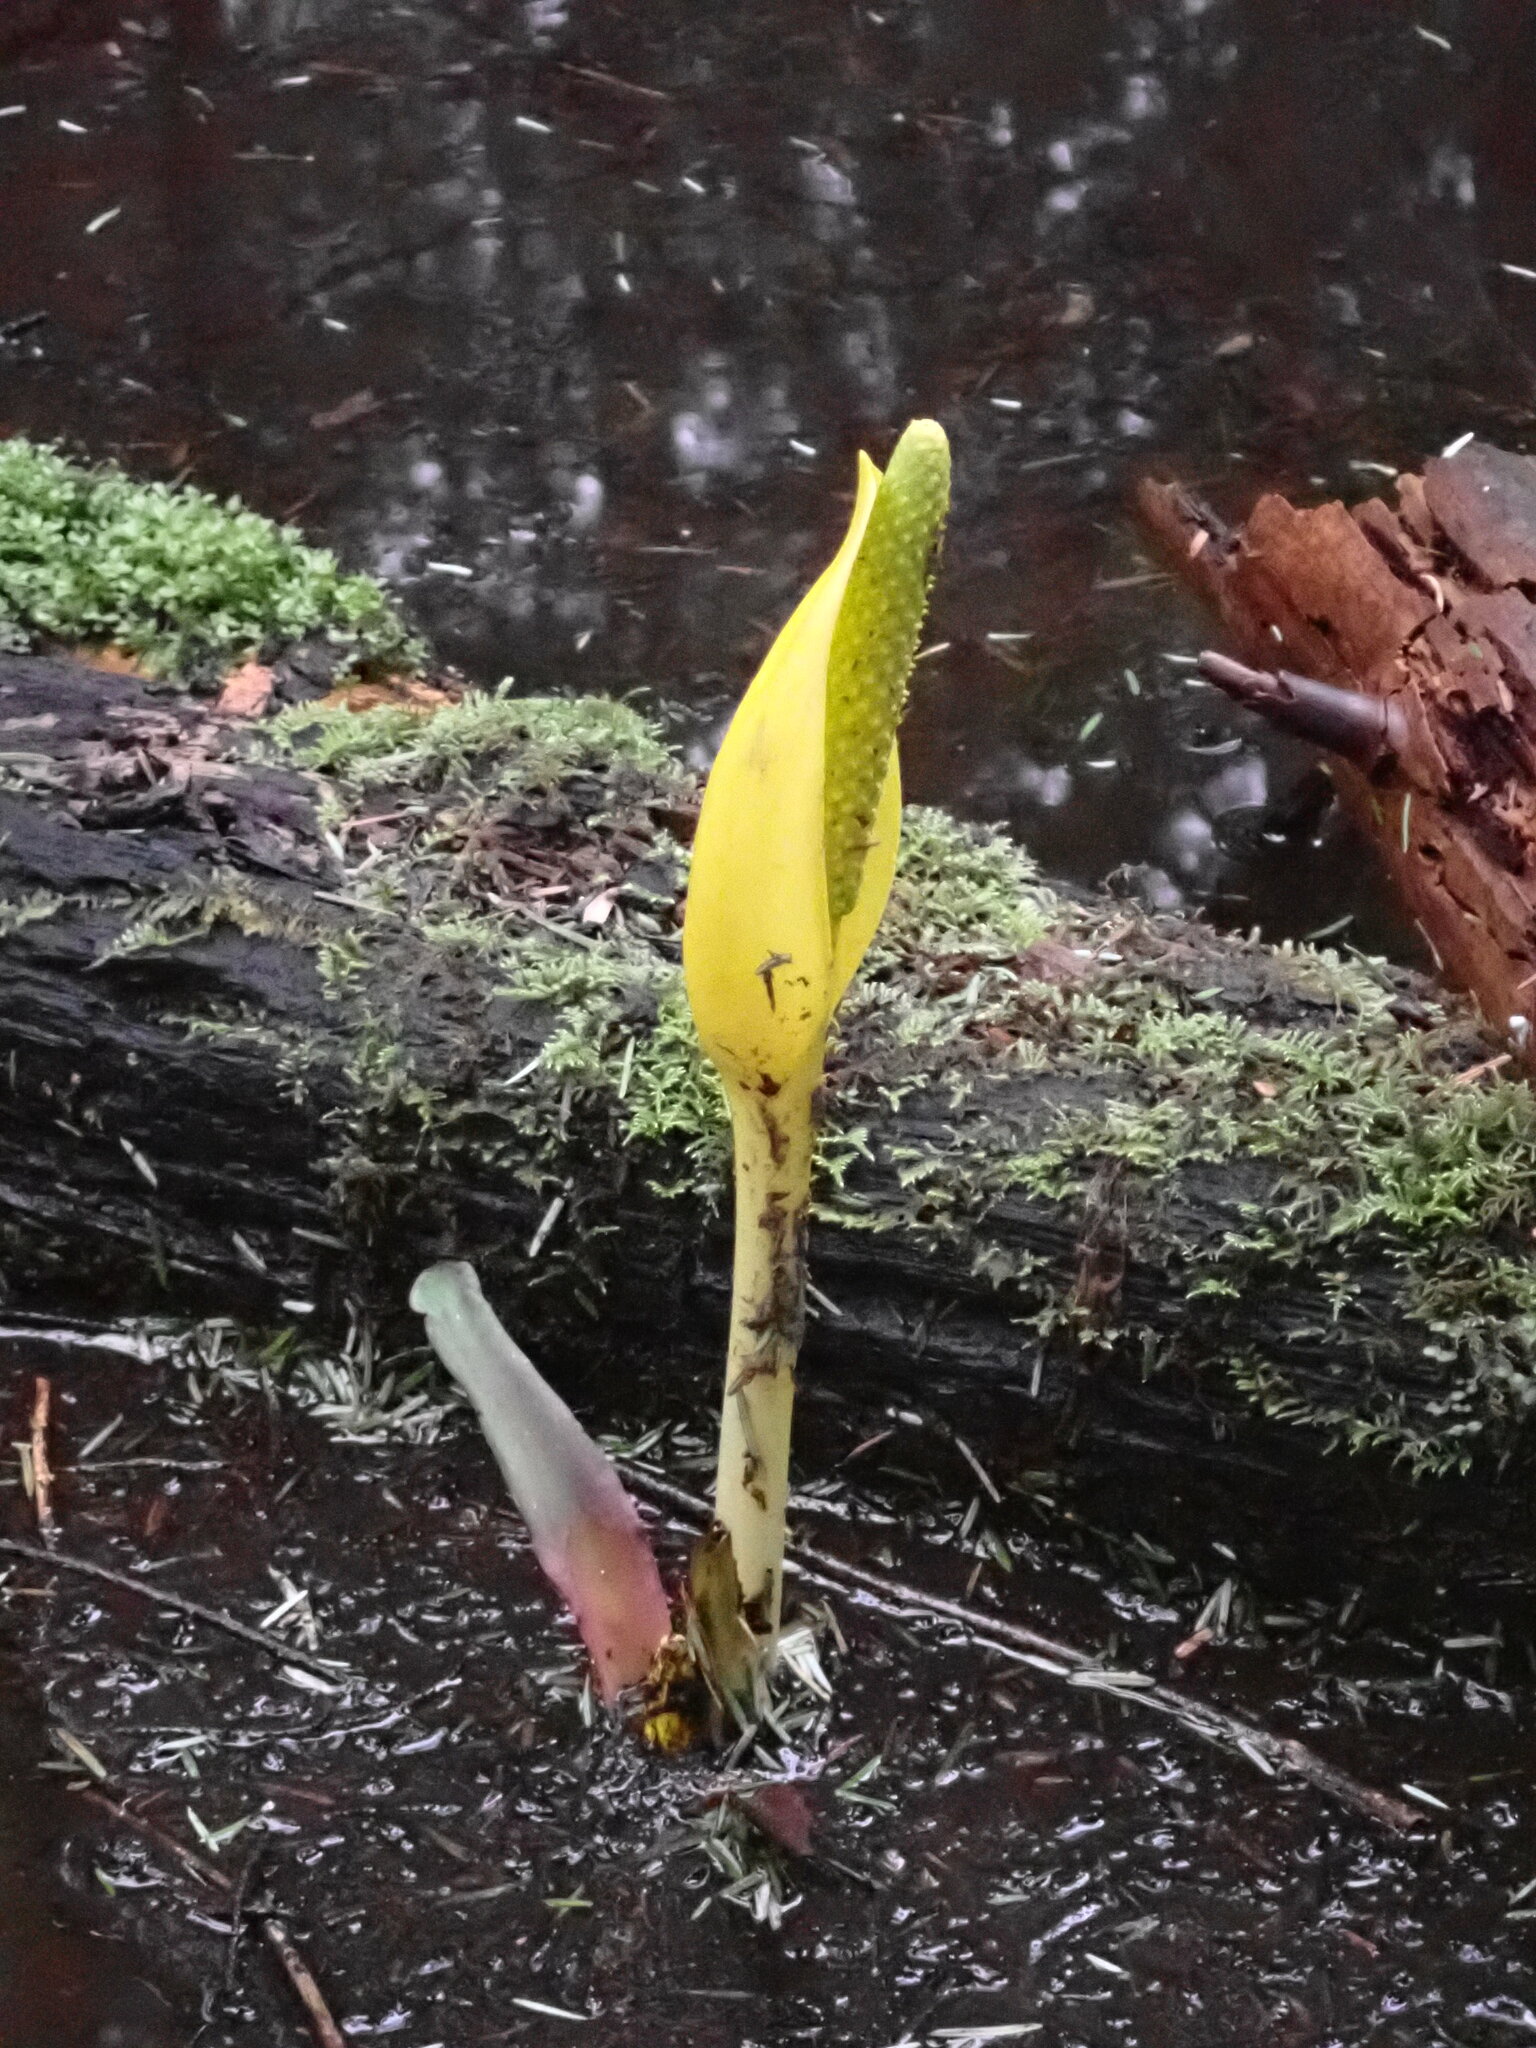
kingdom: Plantae
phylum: Tracheophyta
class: Liliopsida
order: Alismatales
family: Araceae
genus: Lysichiton
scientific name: Lysichiton americanus
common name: American skunk cabbage
